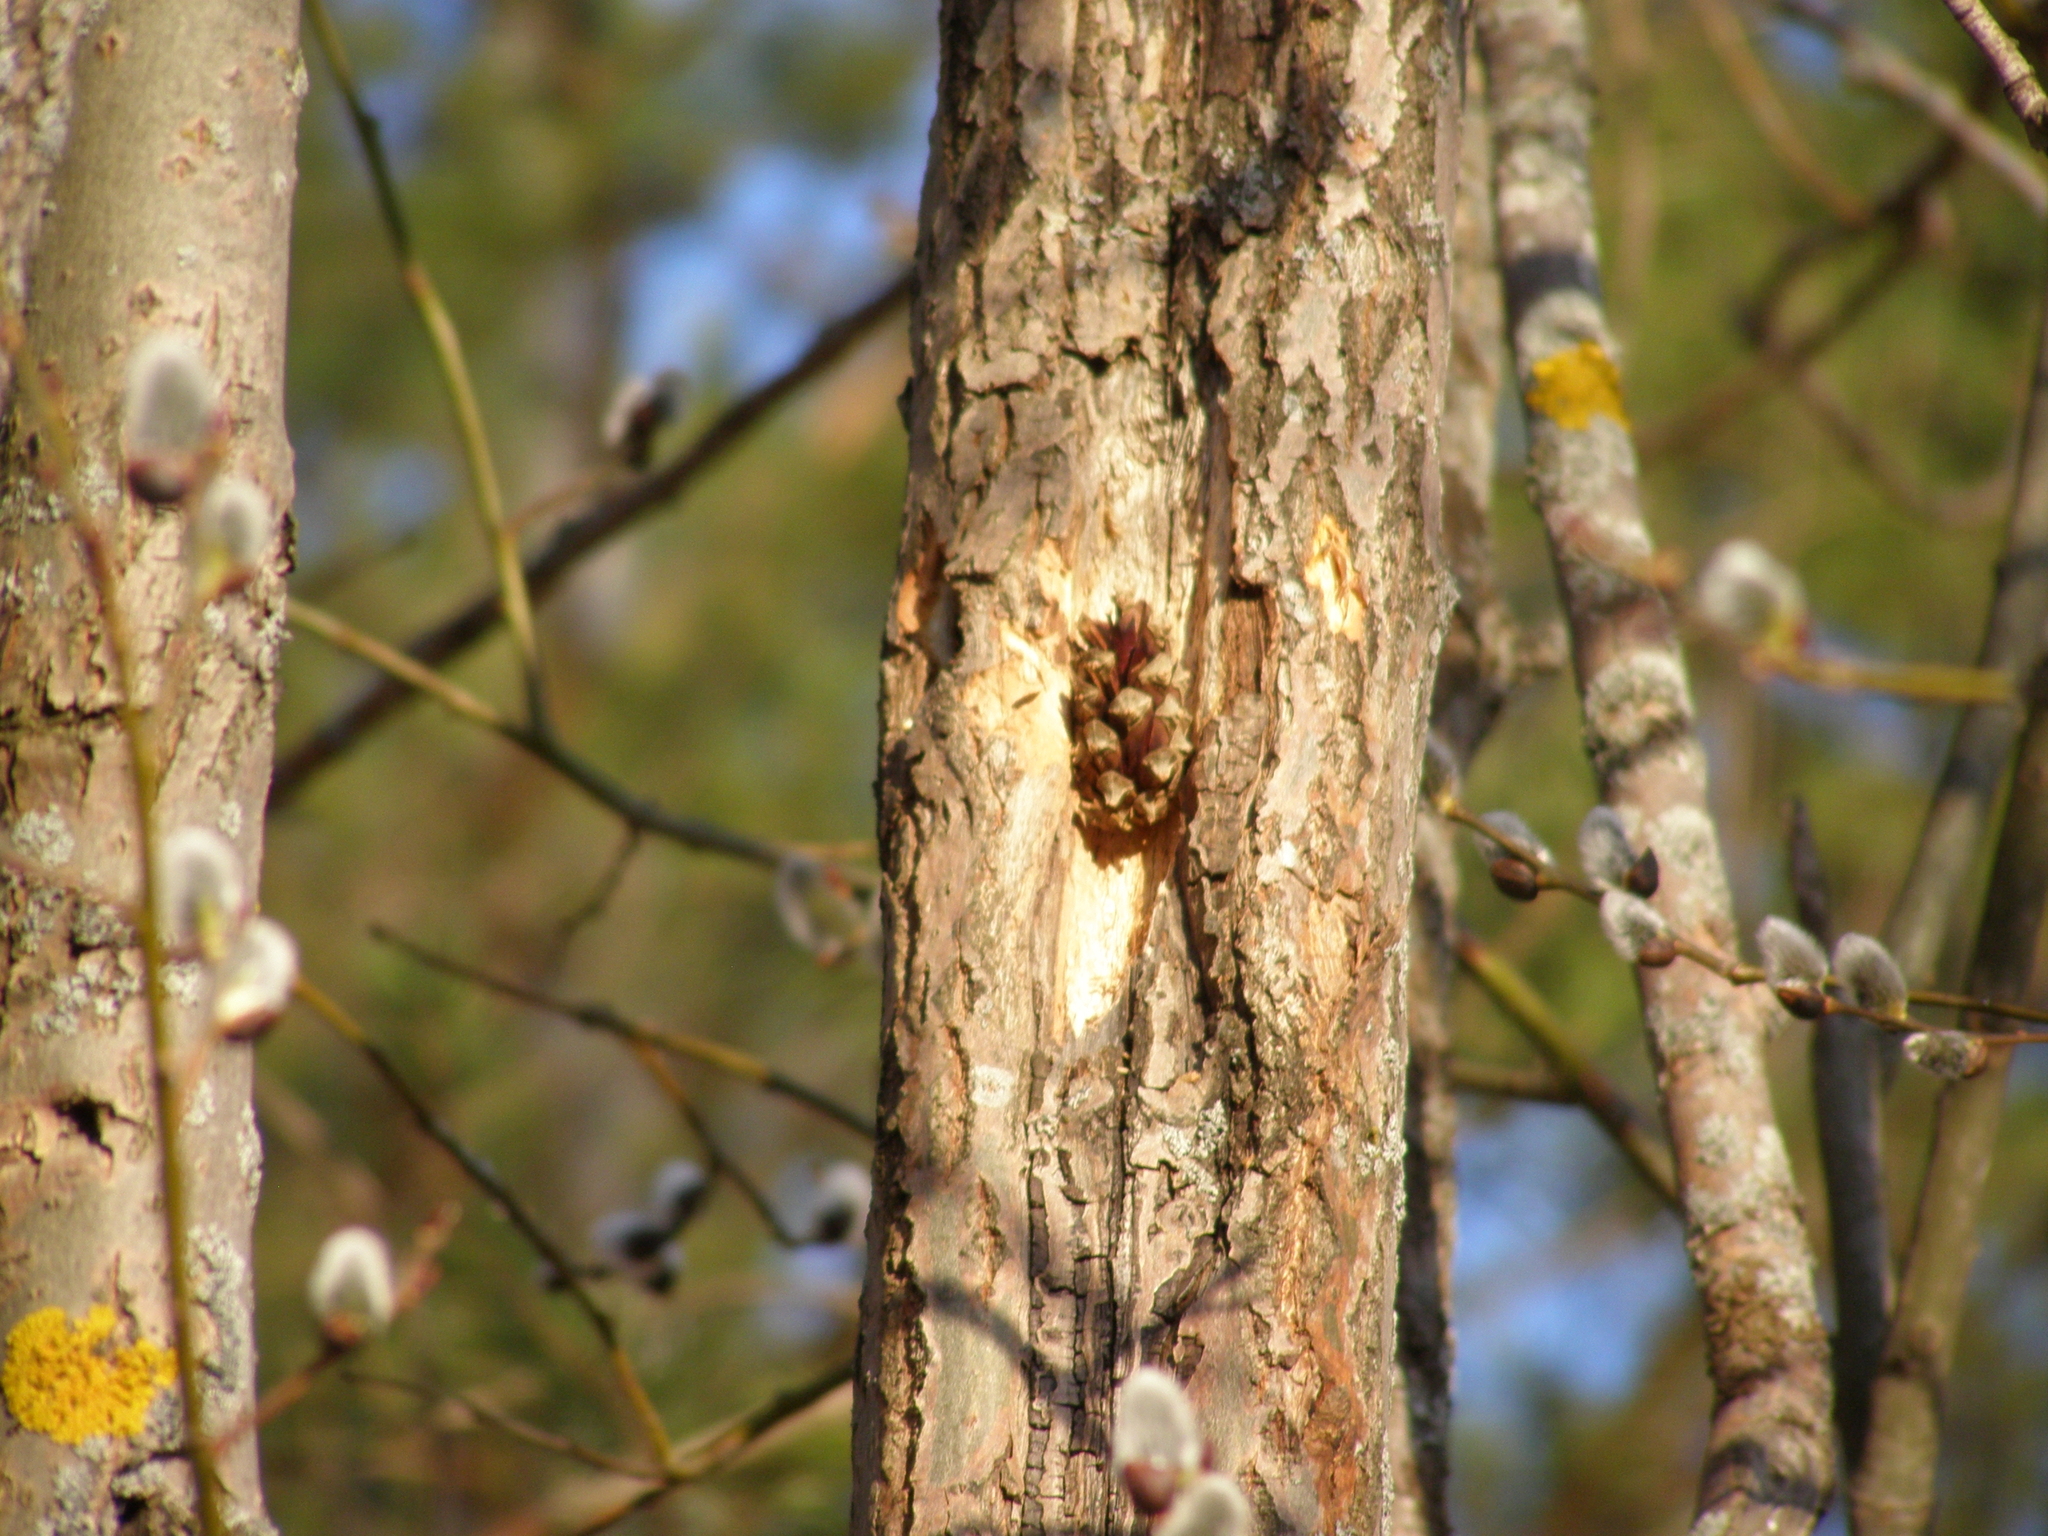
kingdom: Animalia
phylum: Chordata
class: Aves
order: Piciformes
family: Picidae
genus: Dendrocopos
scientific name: Dendrocopos major
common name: Great spotted woodpecker
